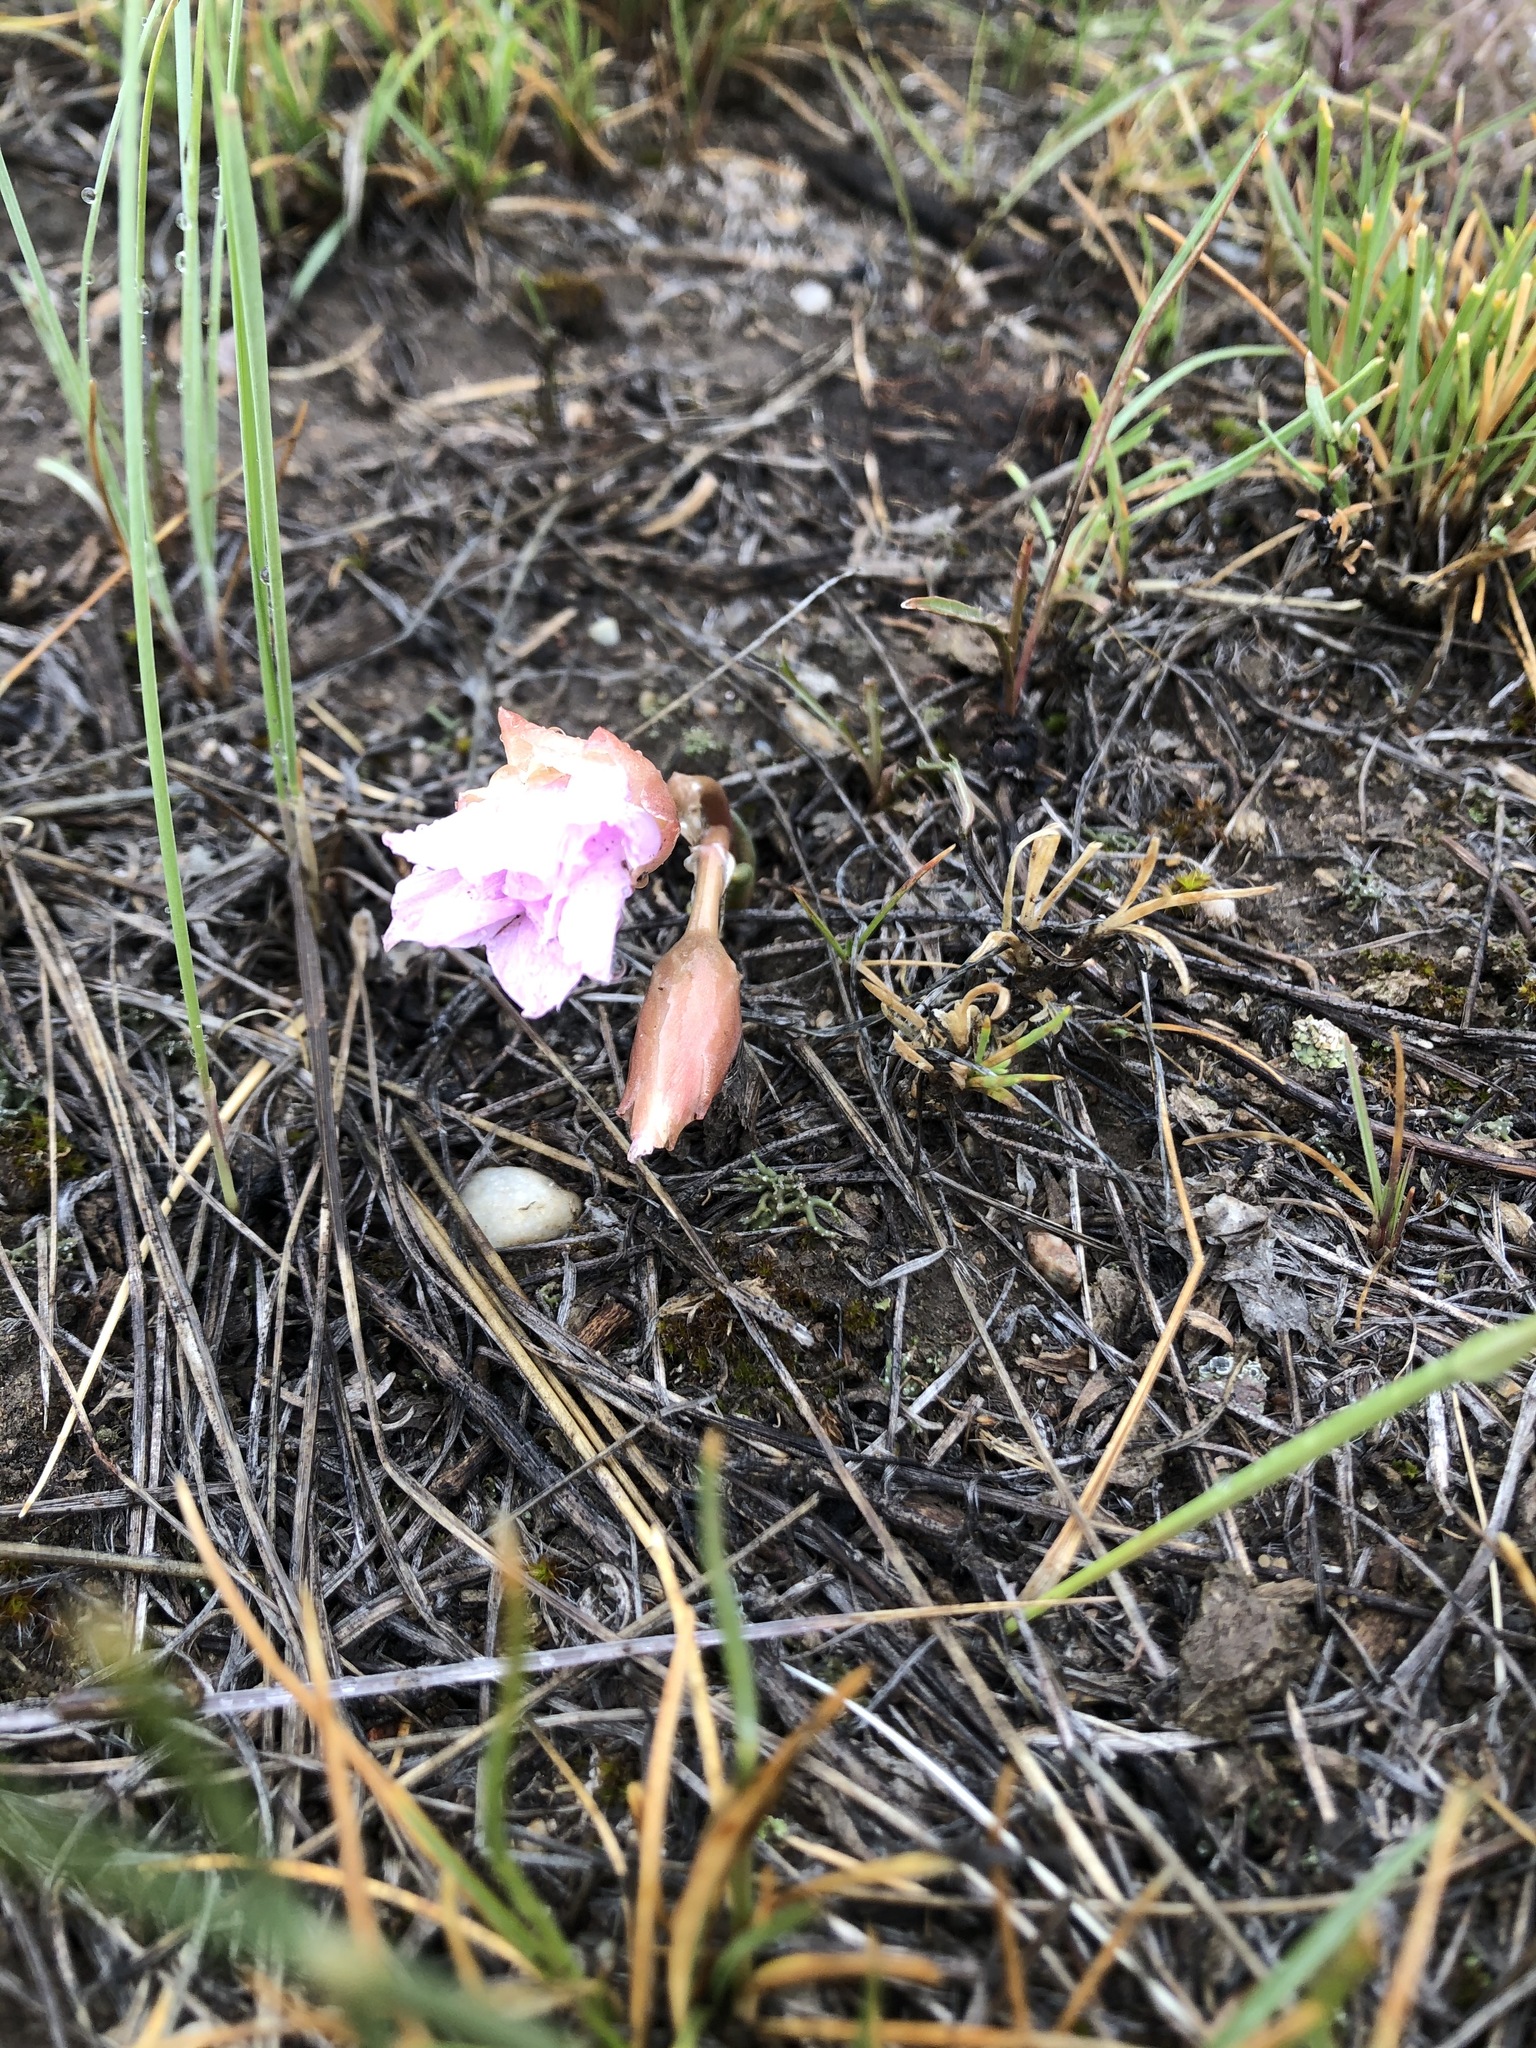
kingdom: Plantae
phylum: Tracheophyta
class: Magnoliopsida
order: Caryophyllales
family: Montiaceae
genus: Lewisia
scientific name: Lewisia rediviva
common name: Bitter-root
